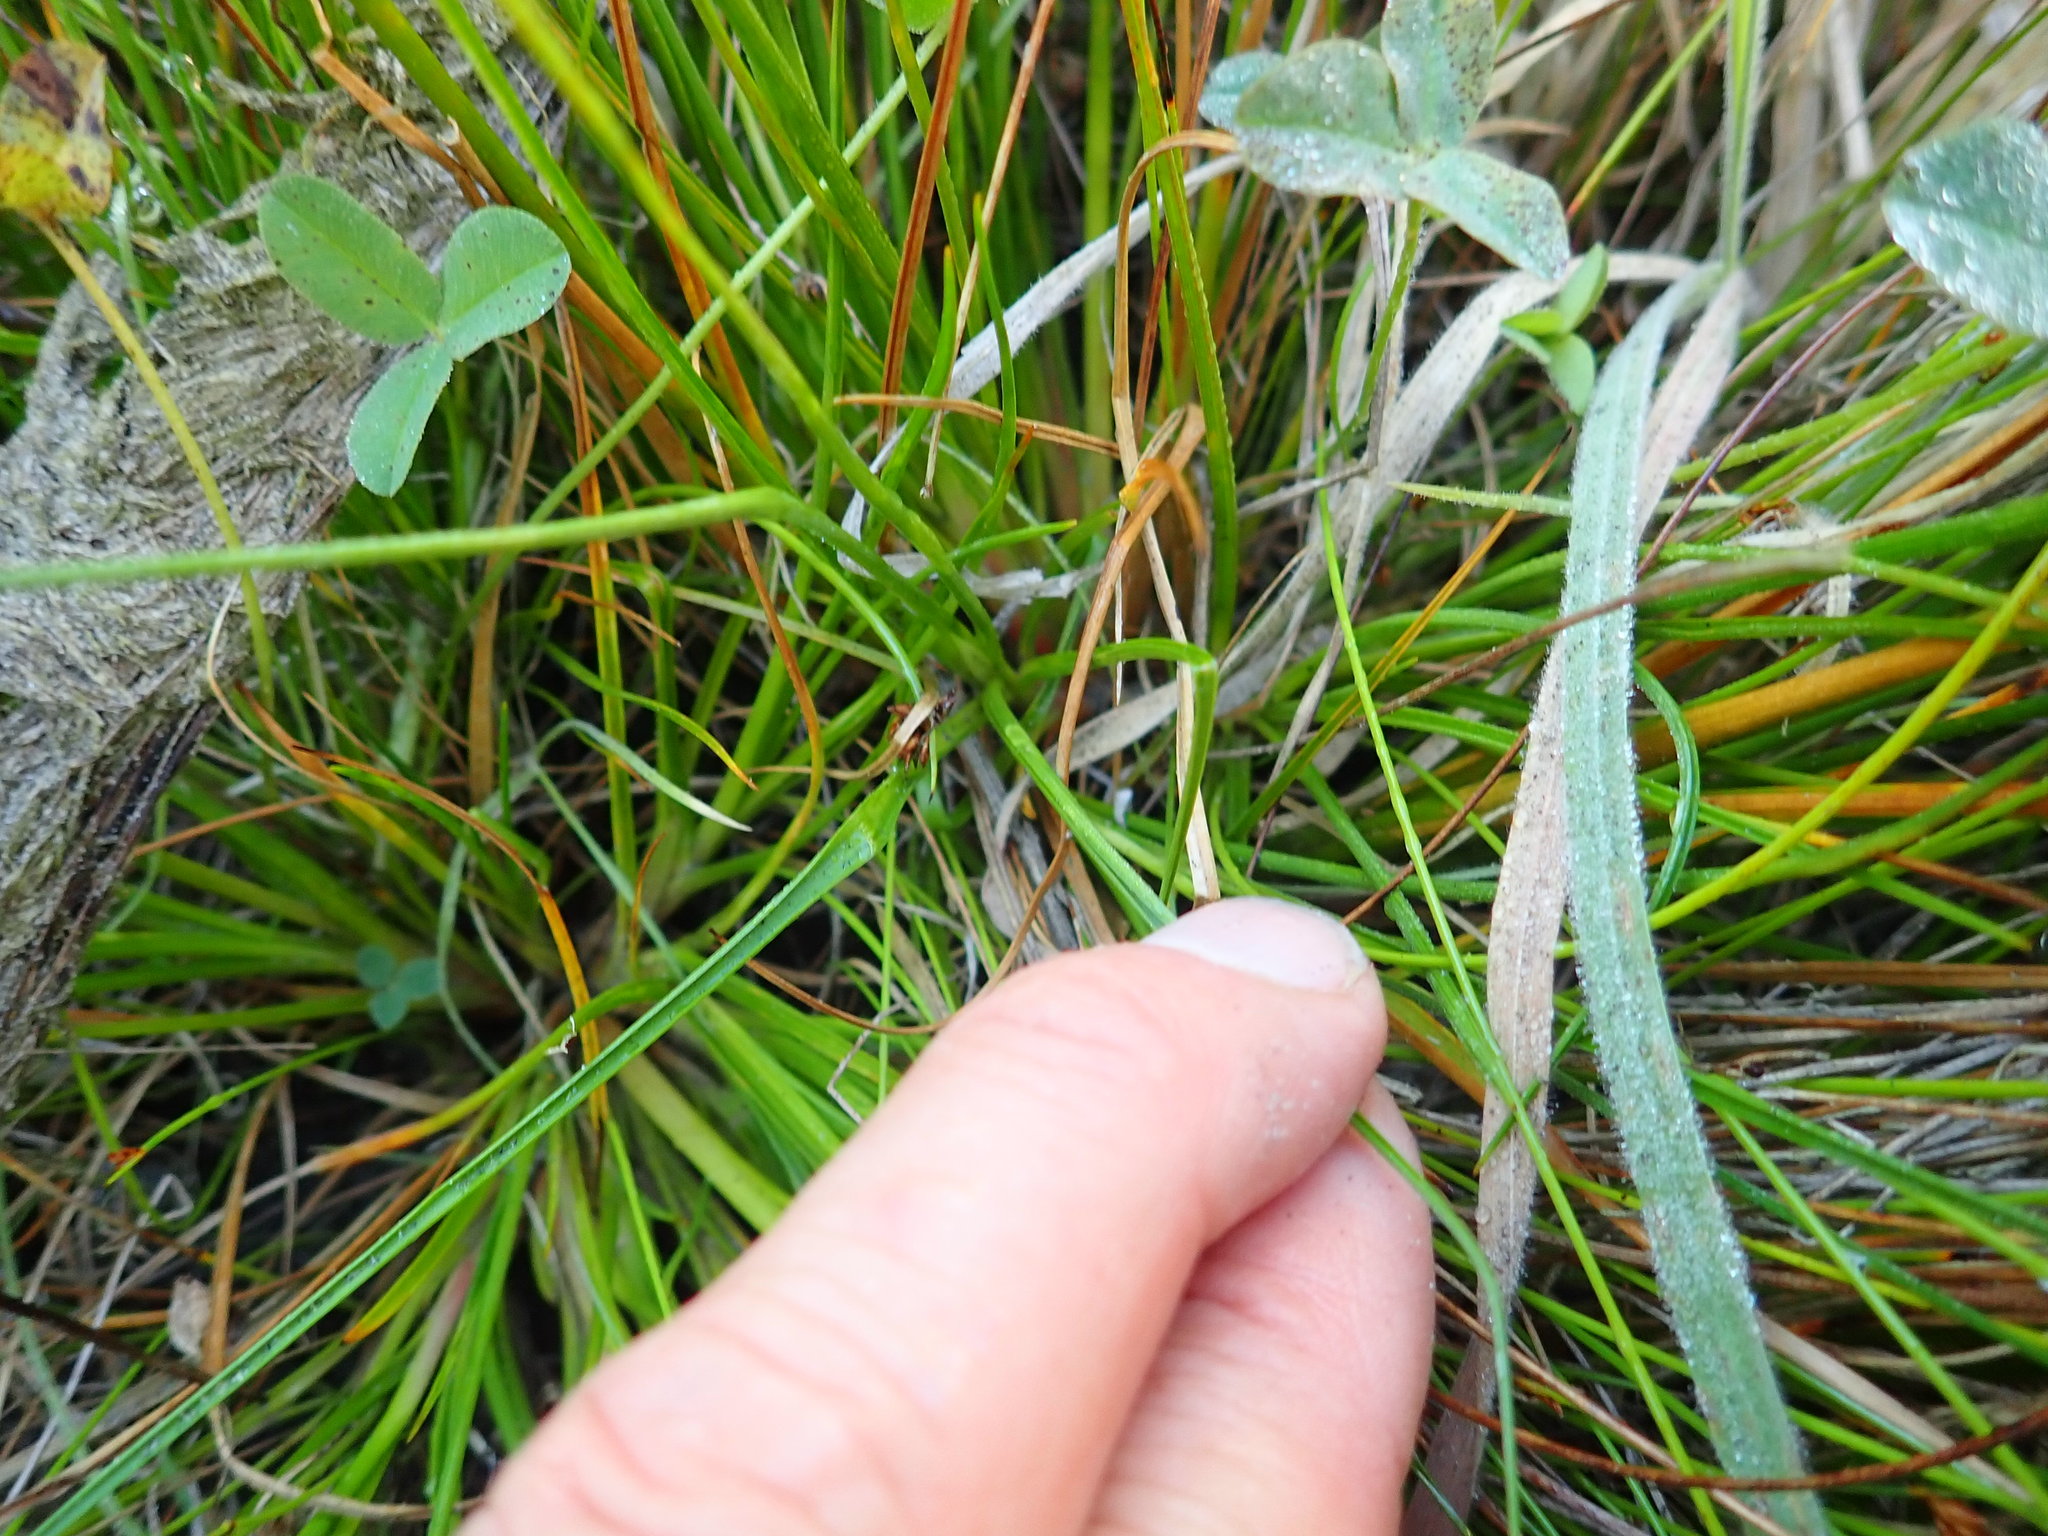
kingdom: Plantae
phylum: Tracheophyta
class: Liliopsida
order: Poales
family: Juncaceae
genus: Juncus
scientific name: Juncus caespiticius
